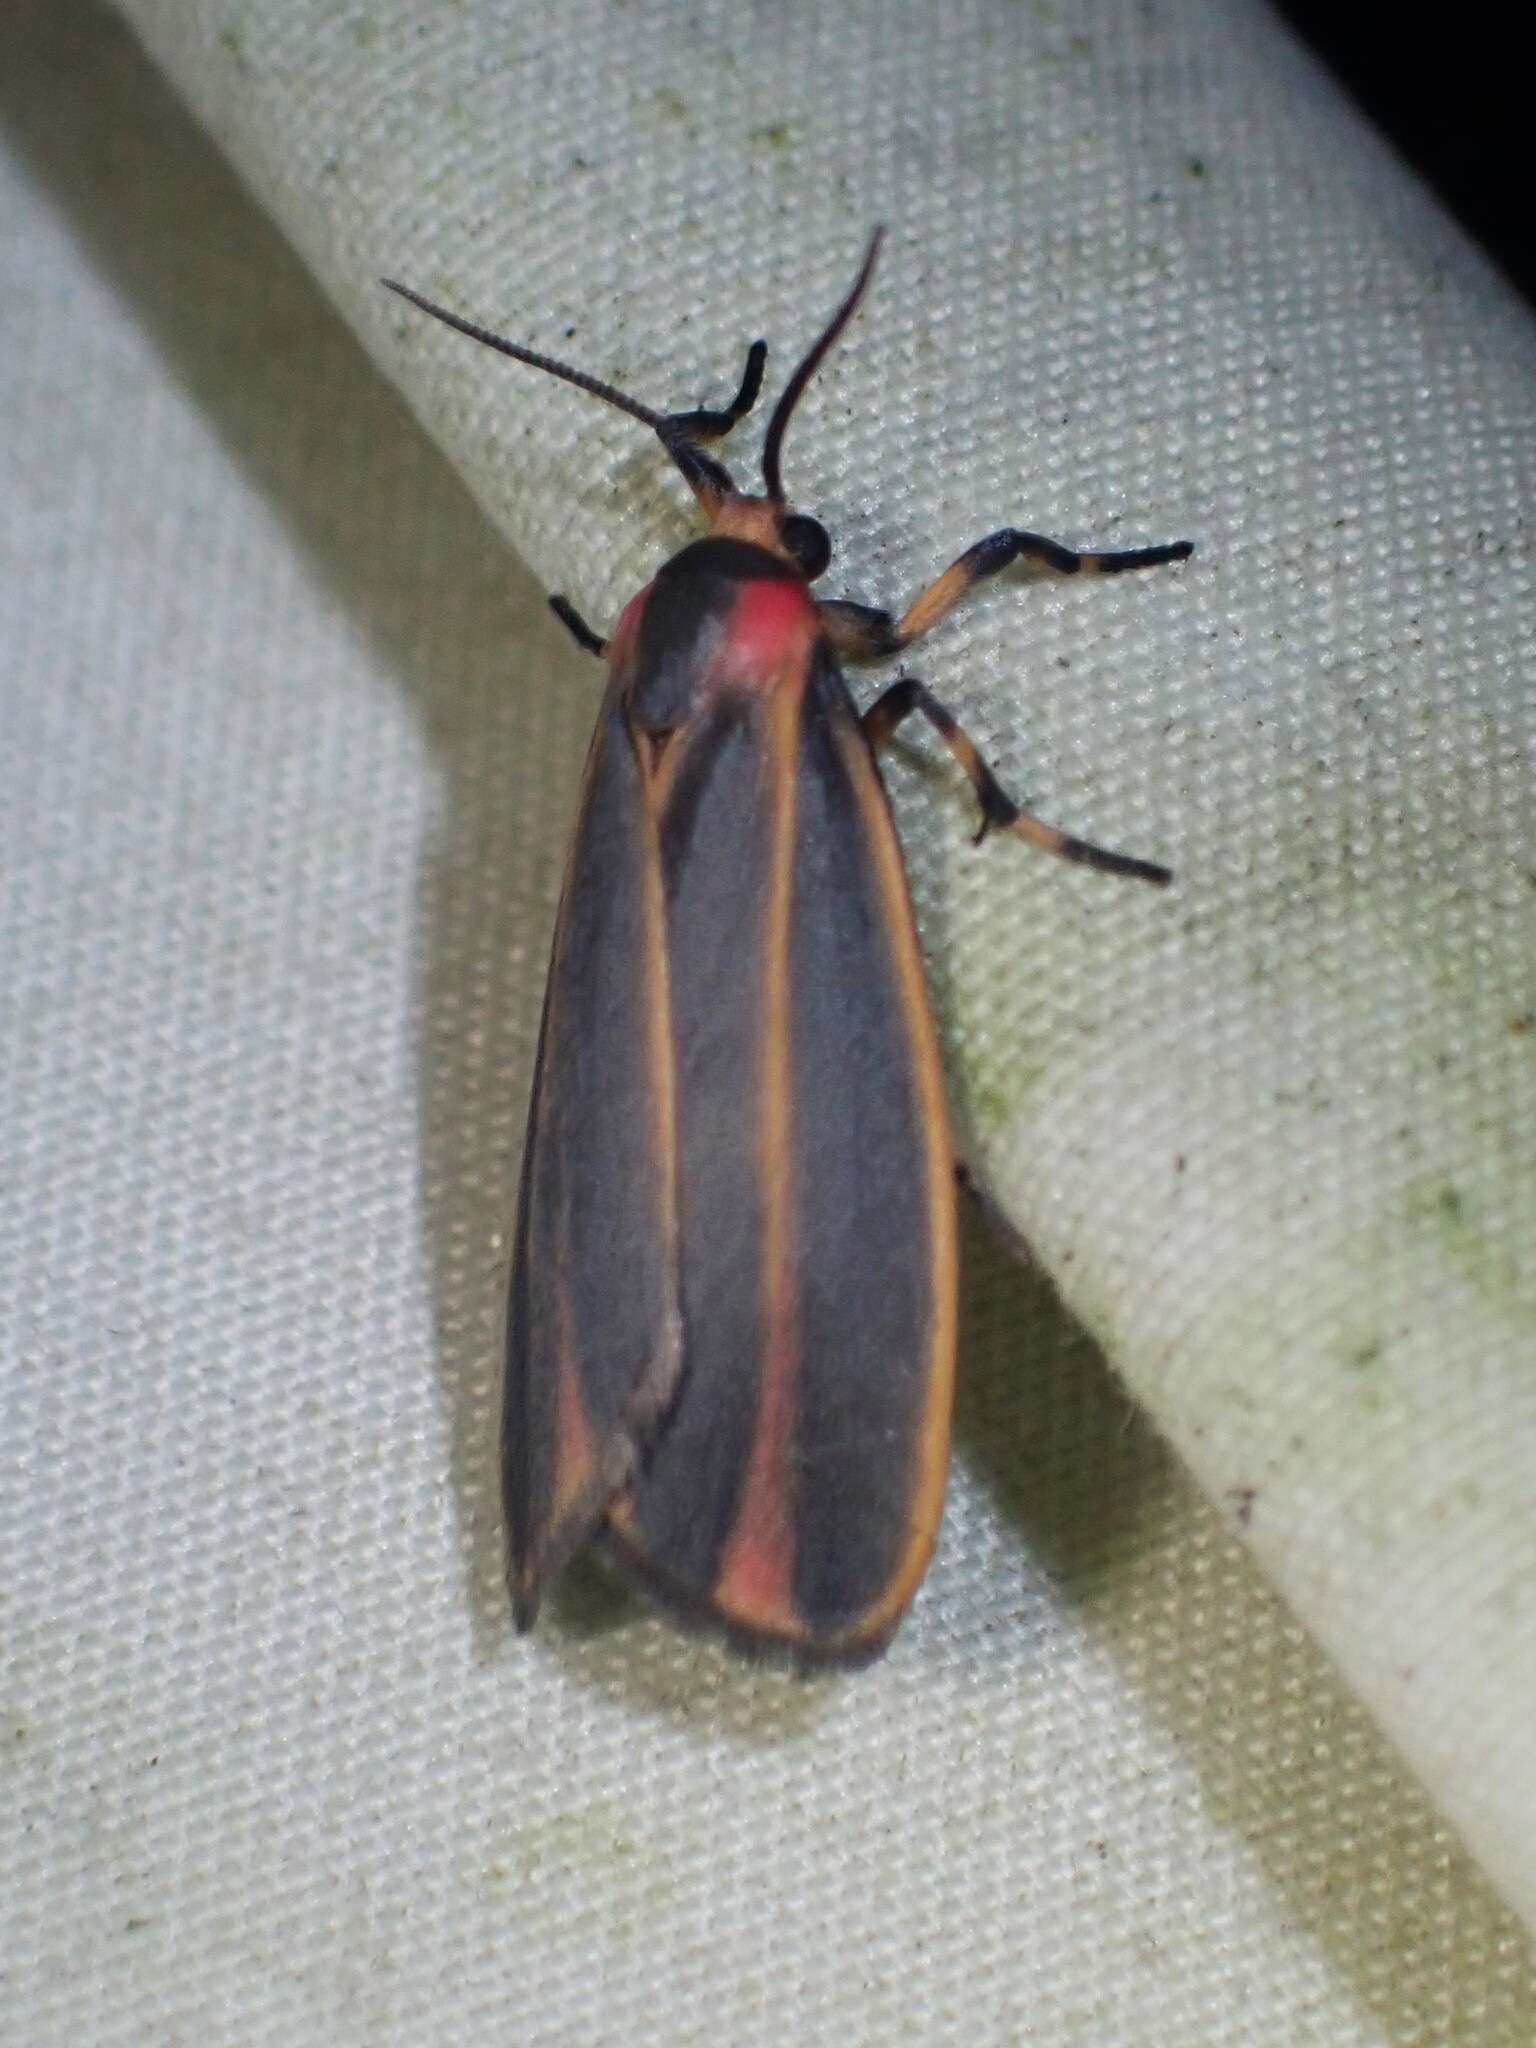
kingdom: Animalia
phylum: Arthropoda
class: Insecta
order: Lepidoptera
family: Erebidae
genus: Hypoprepia
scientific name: Hypoprepia fucosa
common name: Painted lichen moth
